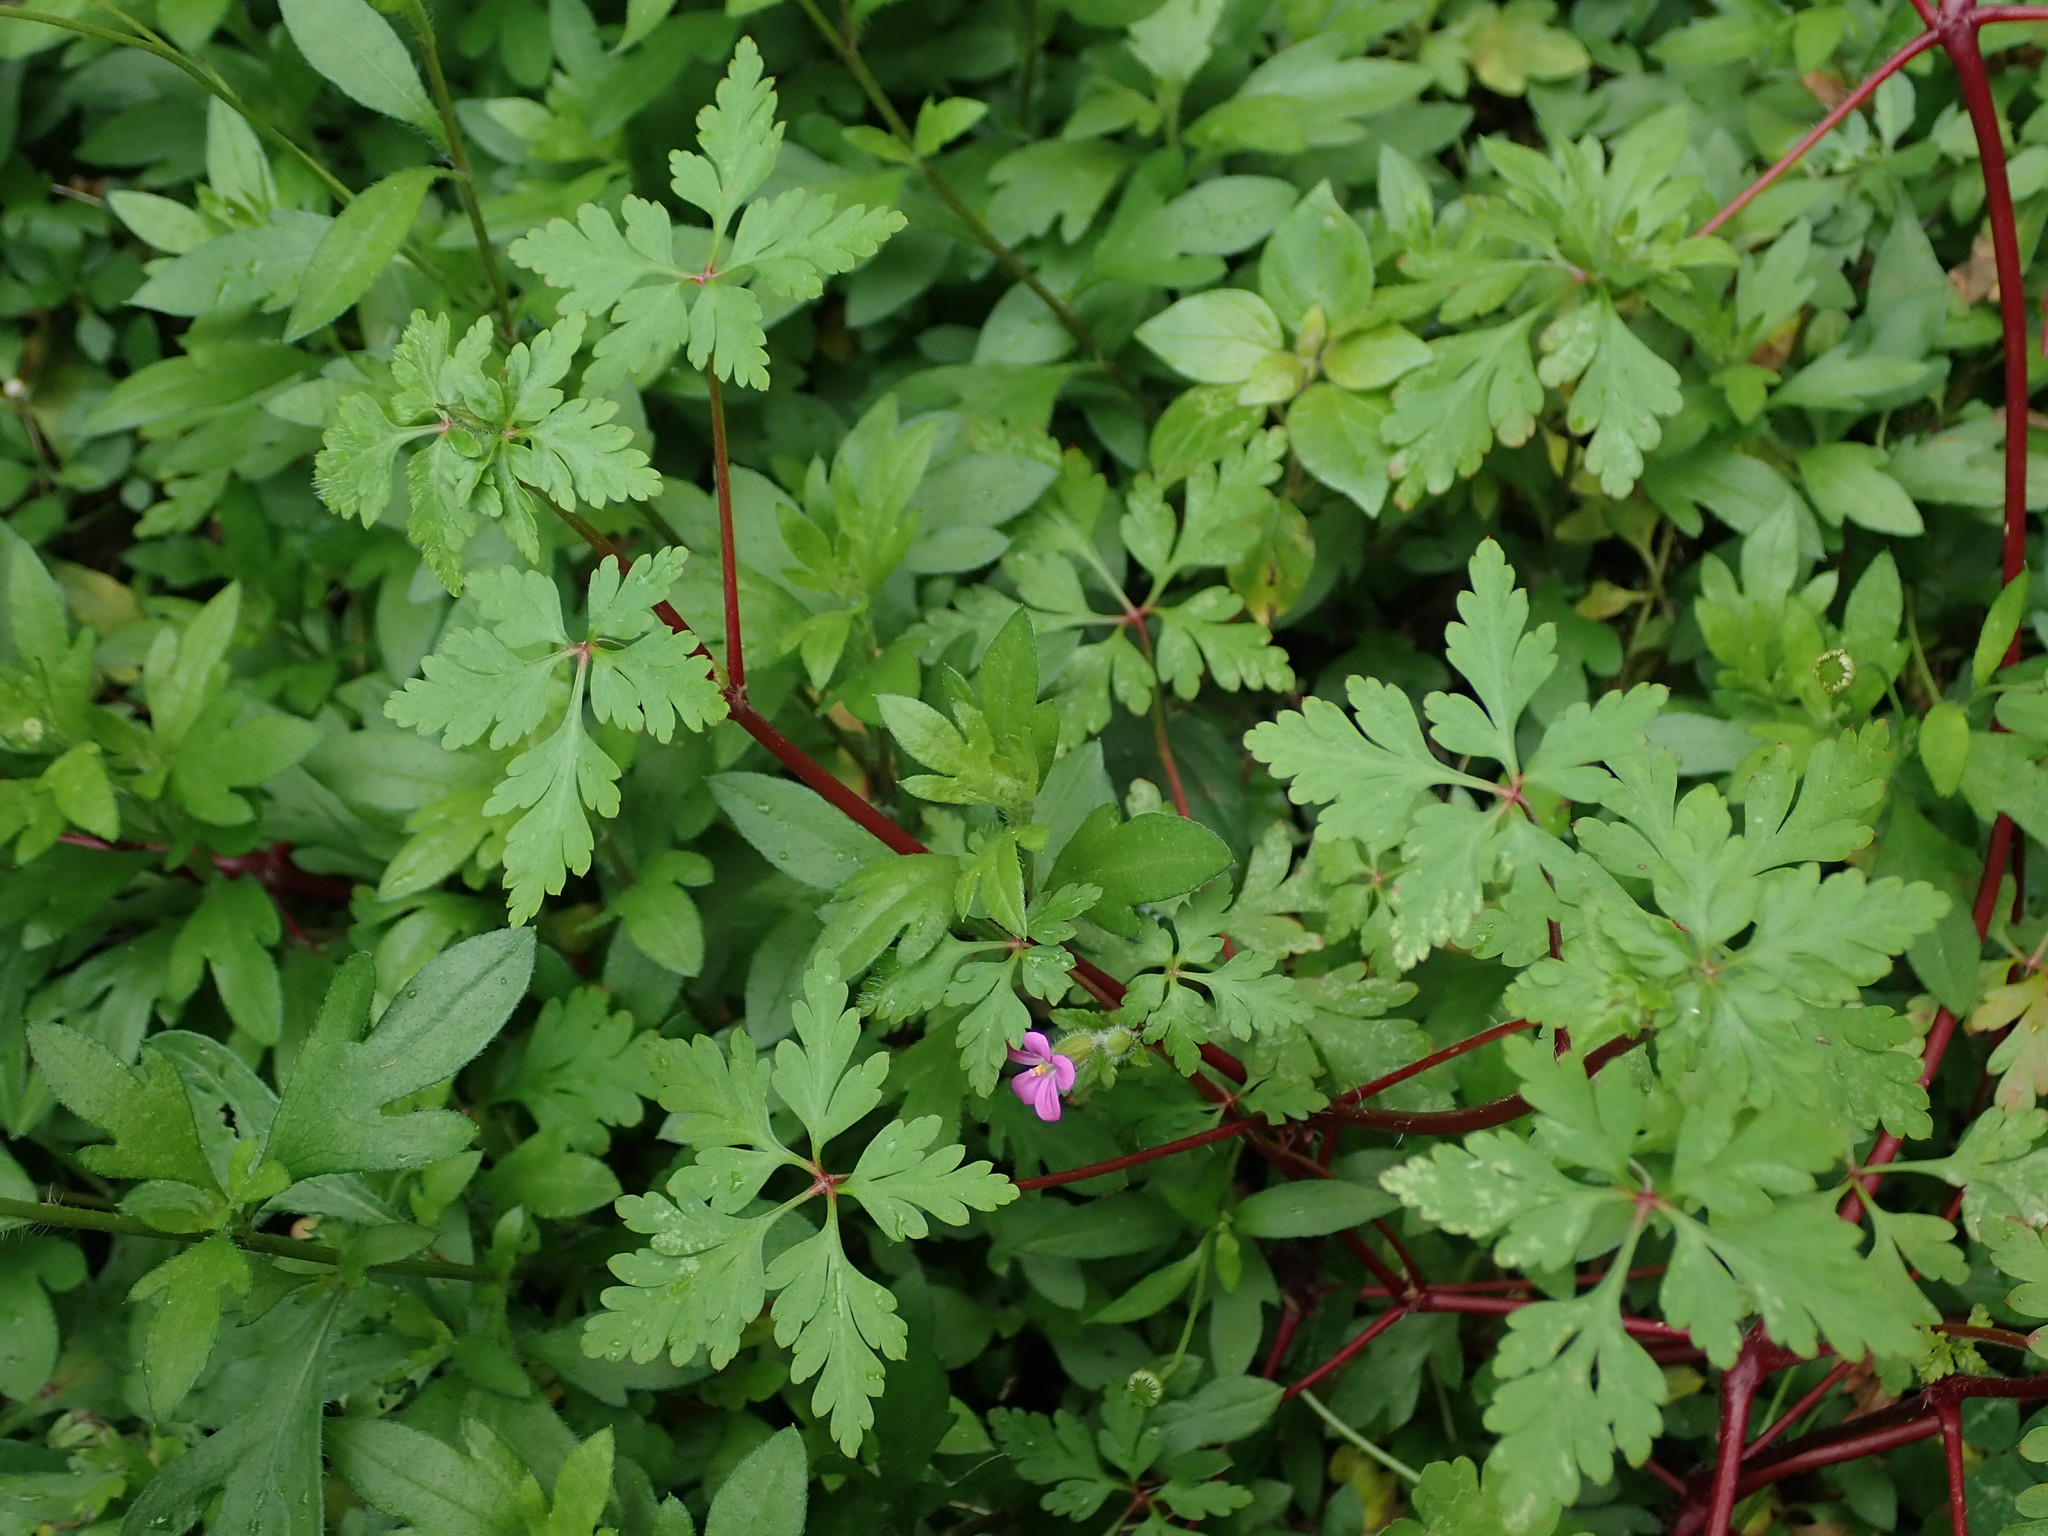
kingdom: Plantae
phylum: Tracheophyta
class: Magnoliopsida
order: Geraniales
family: Geraniaceae
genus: Geranium
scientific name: Geranium purpureum
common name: Little-robin
